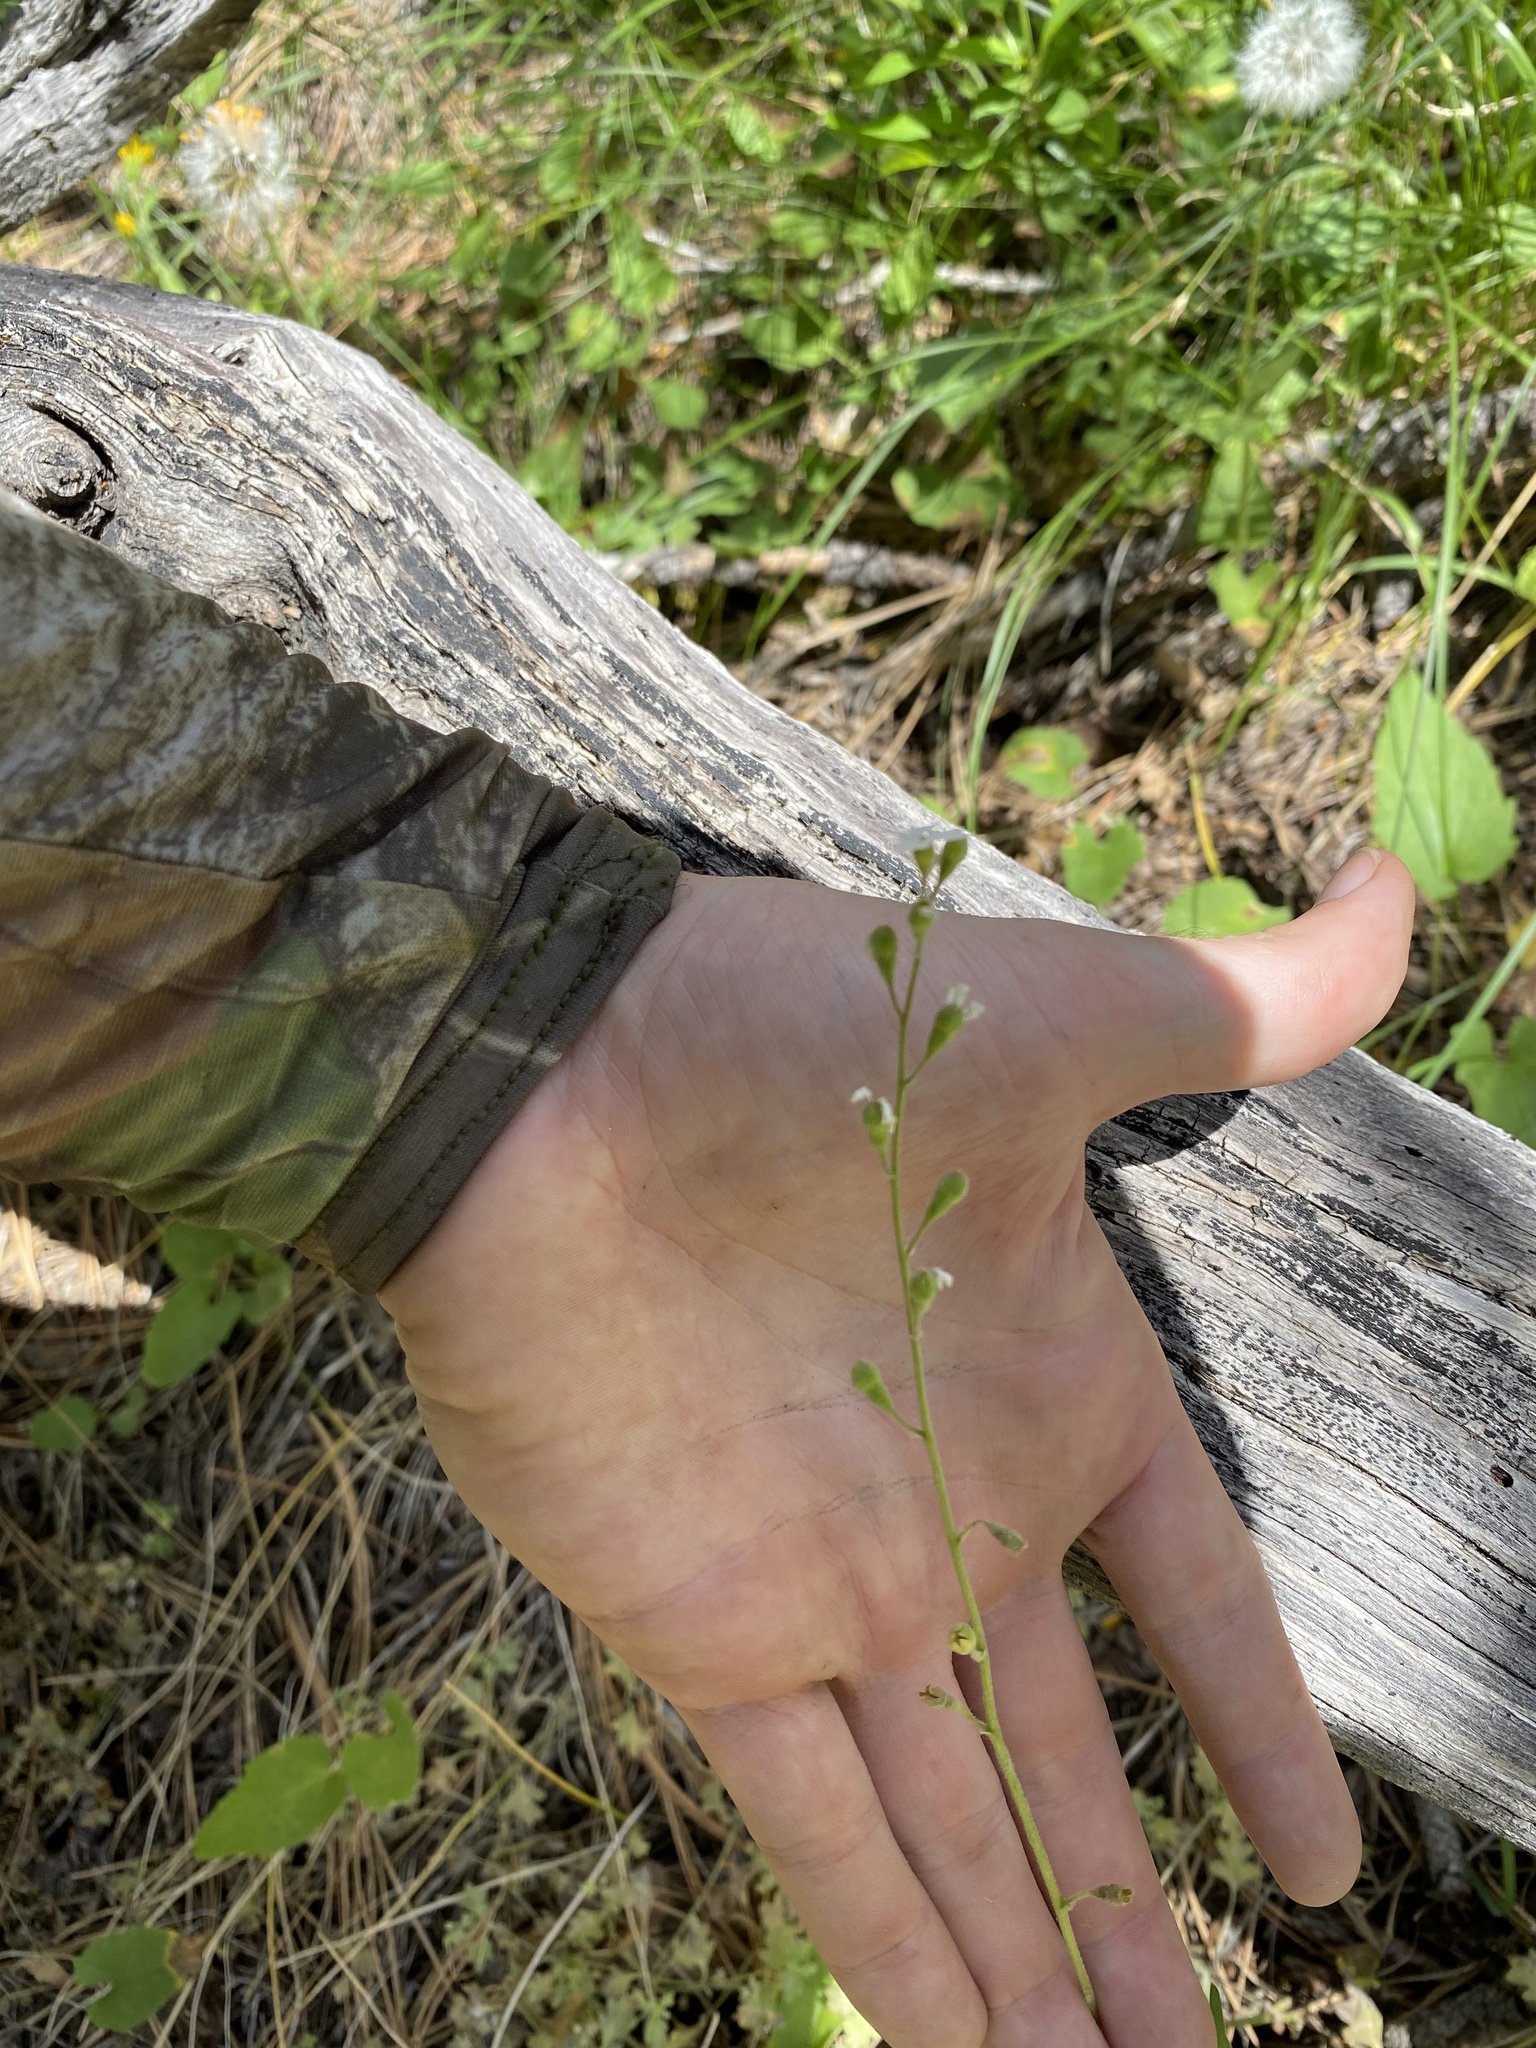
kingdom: Plantae
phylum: Tracheophyta
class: Magnoliopsida
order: Saxifragales
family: Saxifragaceae
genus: Lithophragma
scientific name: Lithophragma parviflorum
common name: Small-flowered fringe-cup
